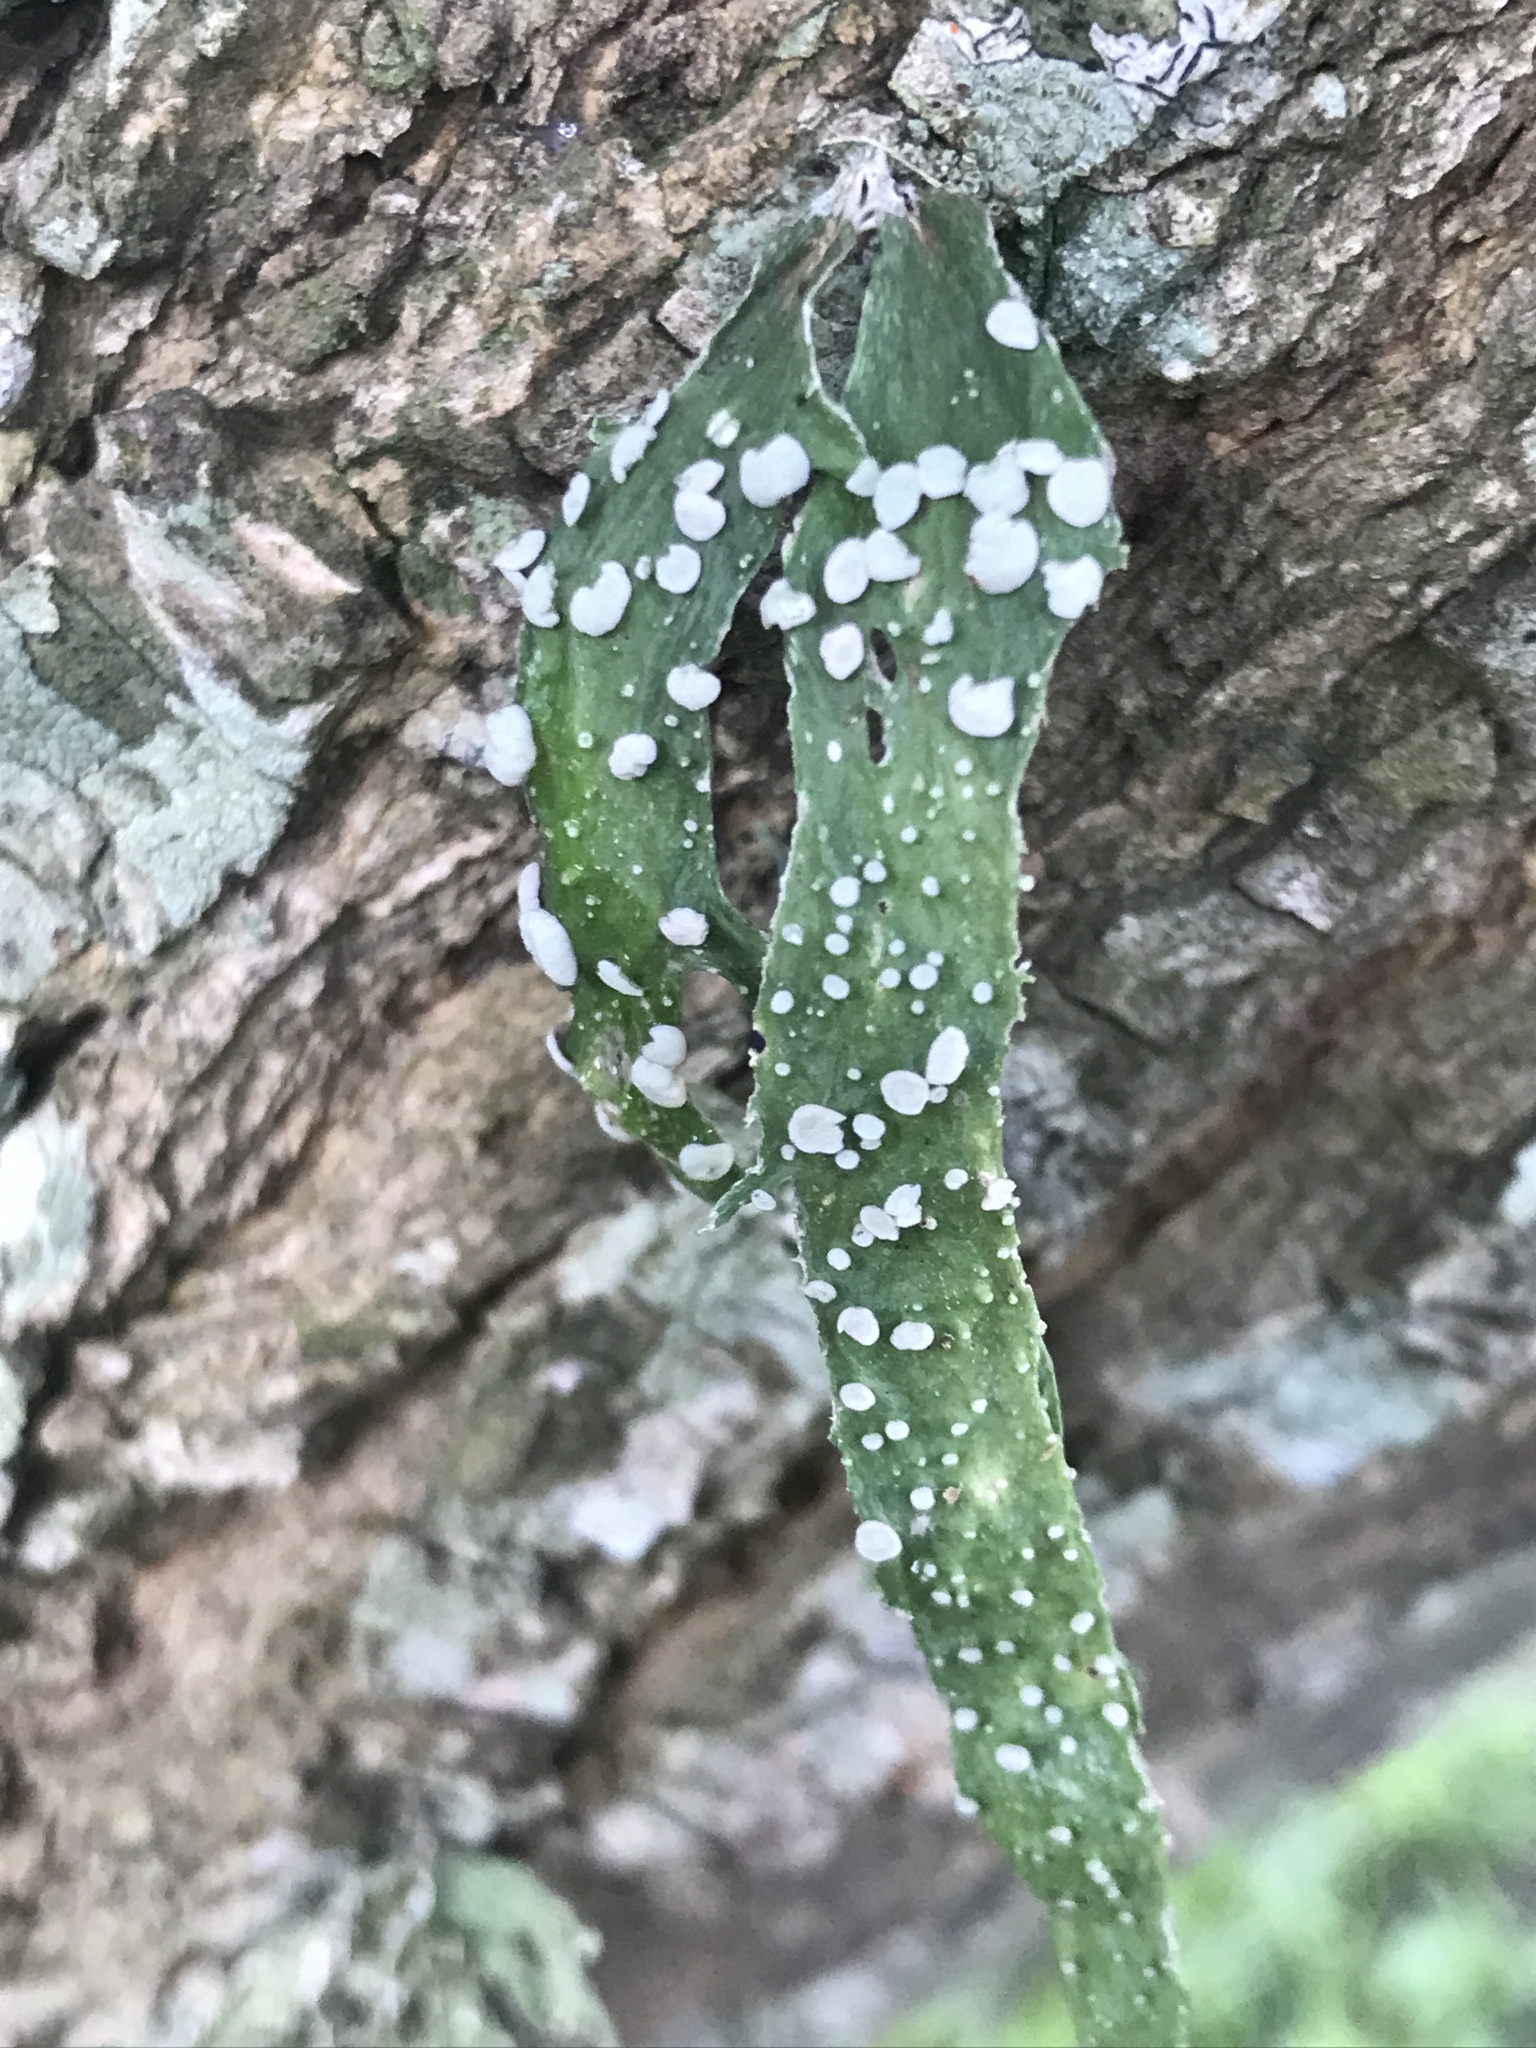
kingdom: Fungi
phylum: Ascomycota
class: Lecanoromycetes
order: Lecanorales
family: Ramalinaceae
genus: Ramalina
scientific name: Ramalina celastri
